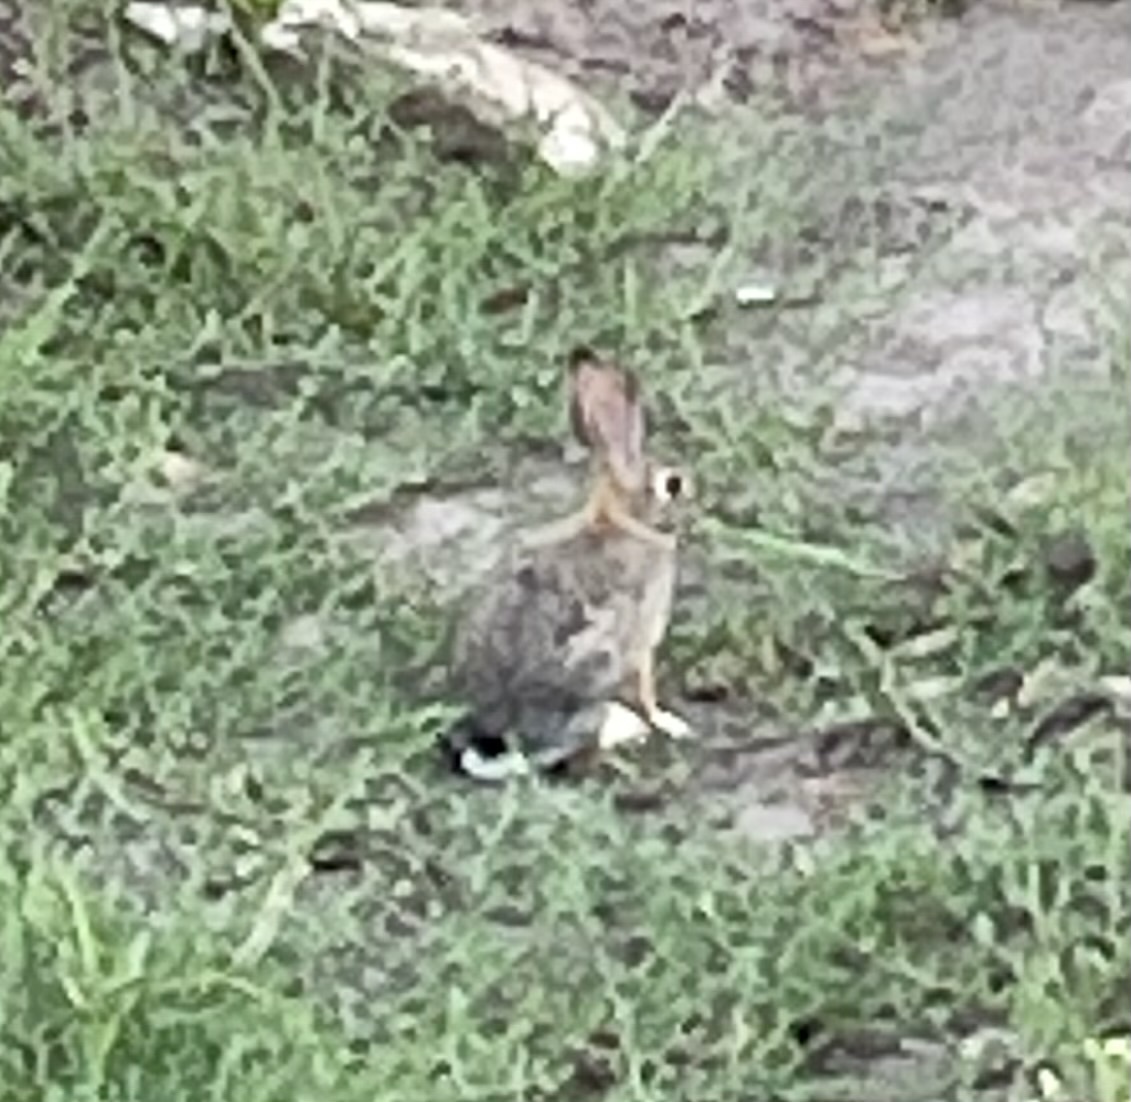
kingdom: Animalia
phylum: Chordata
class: Mammalia
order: Lagomorpha
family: Leporidae
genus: Sylvilagus
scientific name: Sylvilagus audubonii
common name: Desert cottontail
